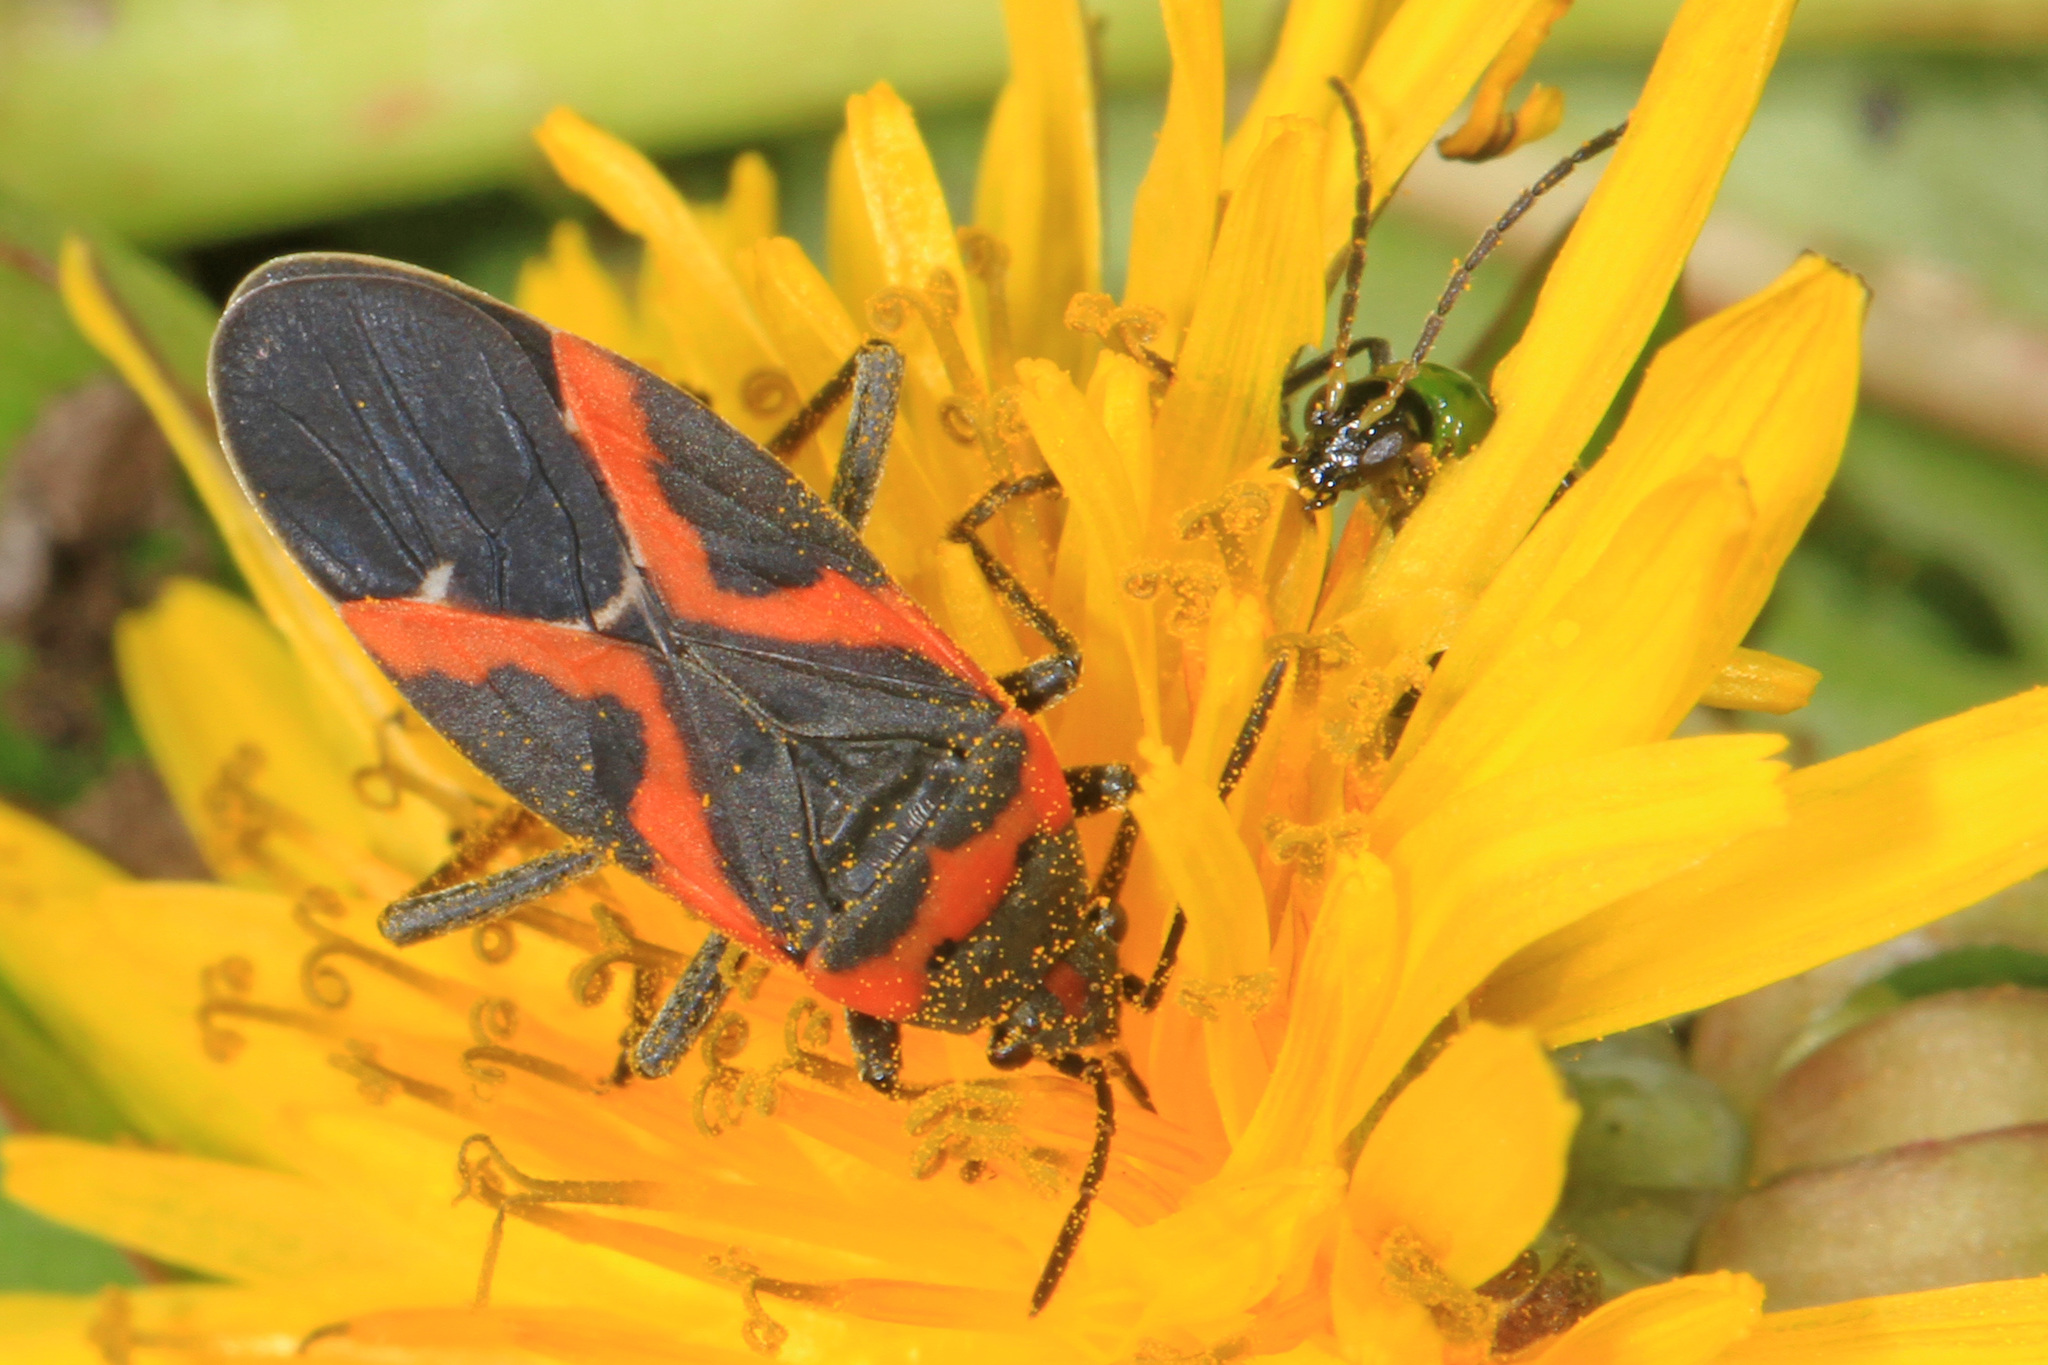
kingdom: Animalia
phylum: Arthropoda
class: Insecta
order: Hemiptera
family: Lygaeidae
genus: Lygaeus
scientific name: Lygaeus kalmii
